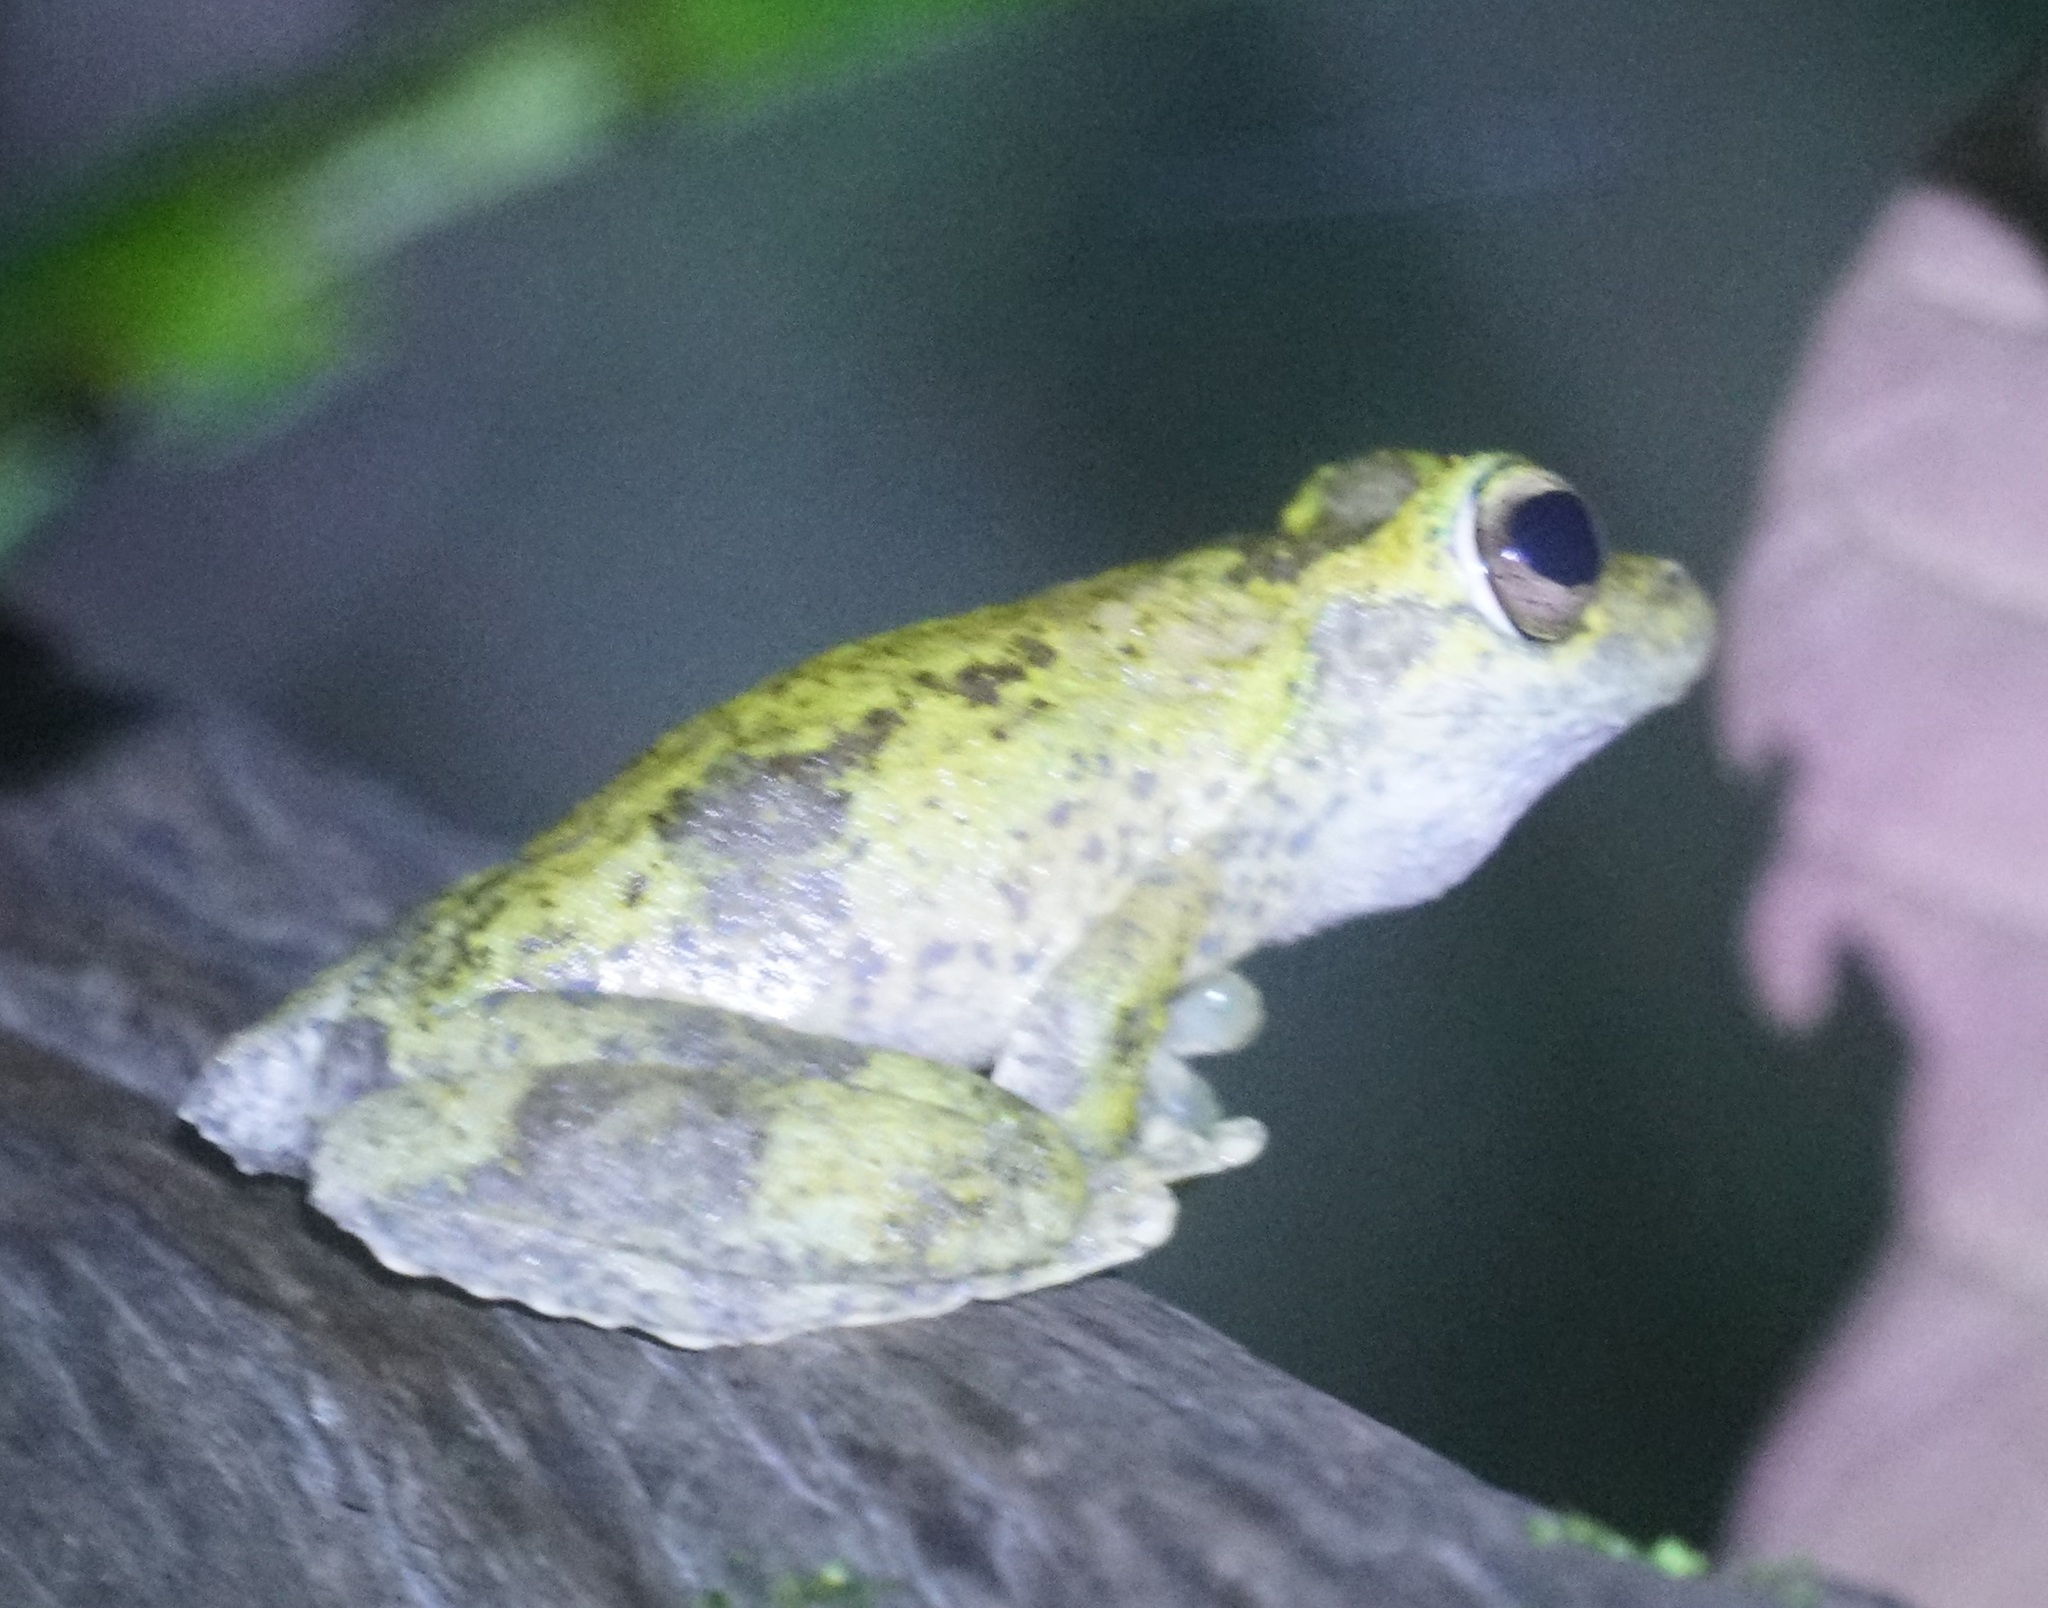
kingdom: Animalia
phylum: Chordata
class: Amphibia
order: Anura
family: Pelodryadidae
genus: Ranoidea
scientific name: Ranoidea myola
